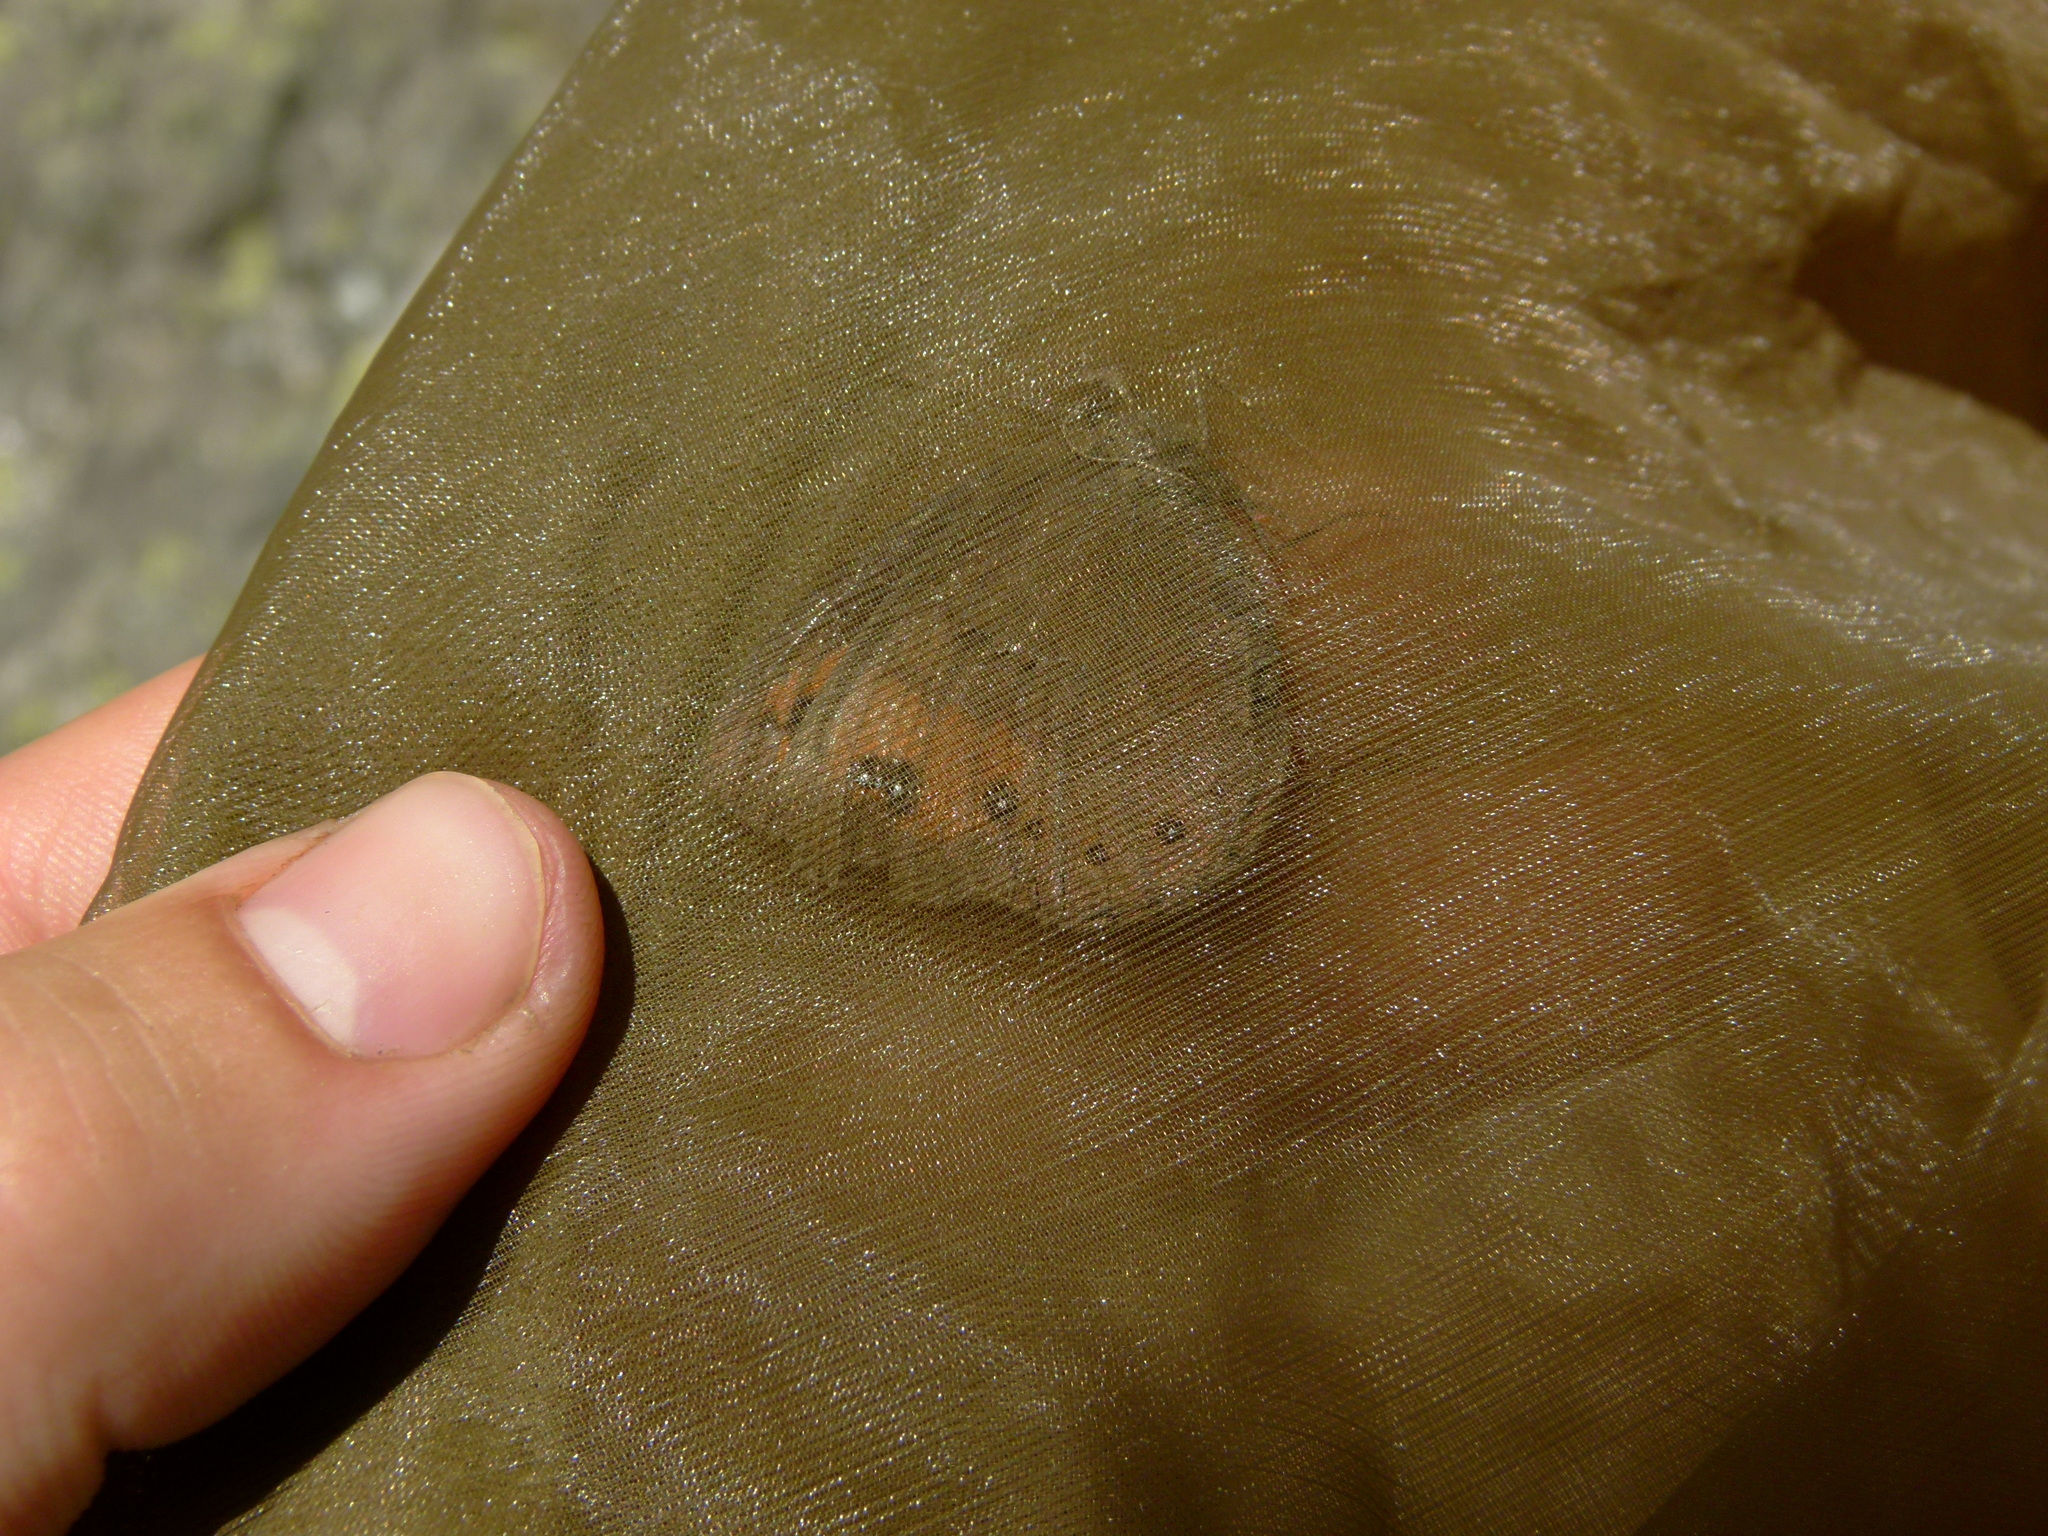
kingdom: Animalia
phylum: Arthropoda
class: Insecta
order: Lepidoptera
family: Nymphalidae
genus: Erebia
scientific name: Erebia meolans
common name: Piedmont ringlet
